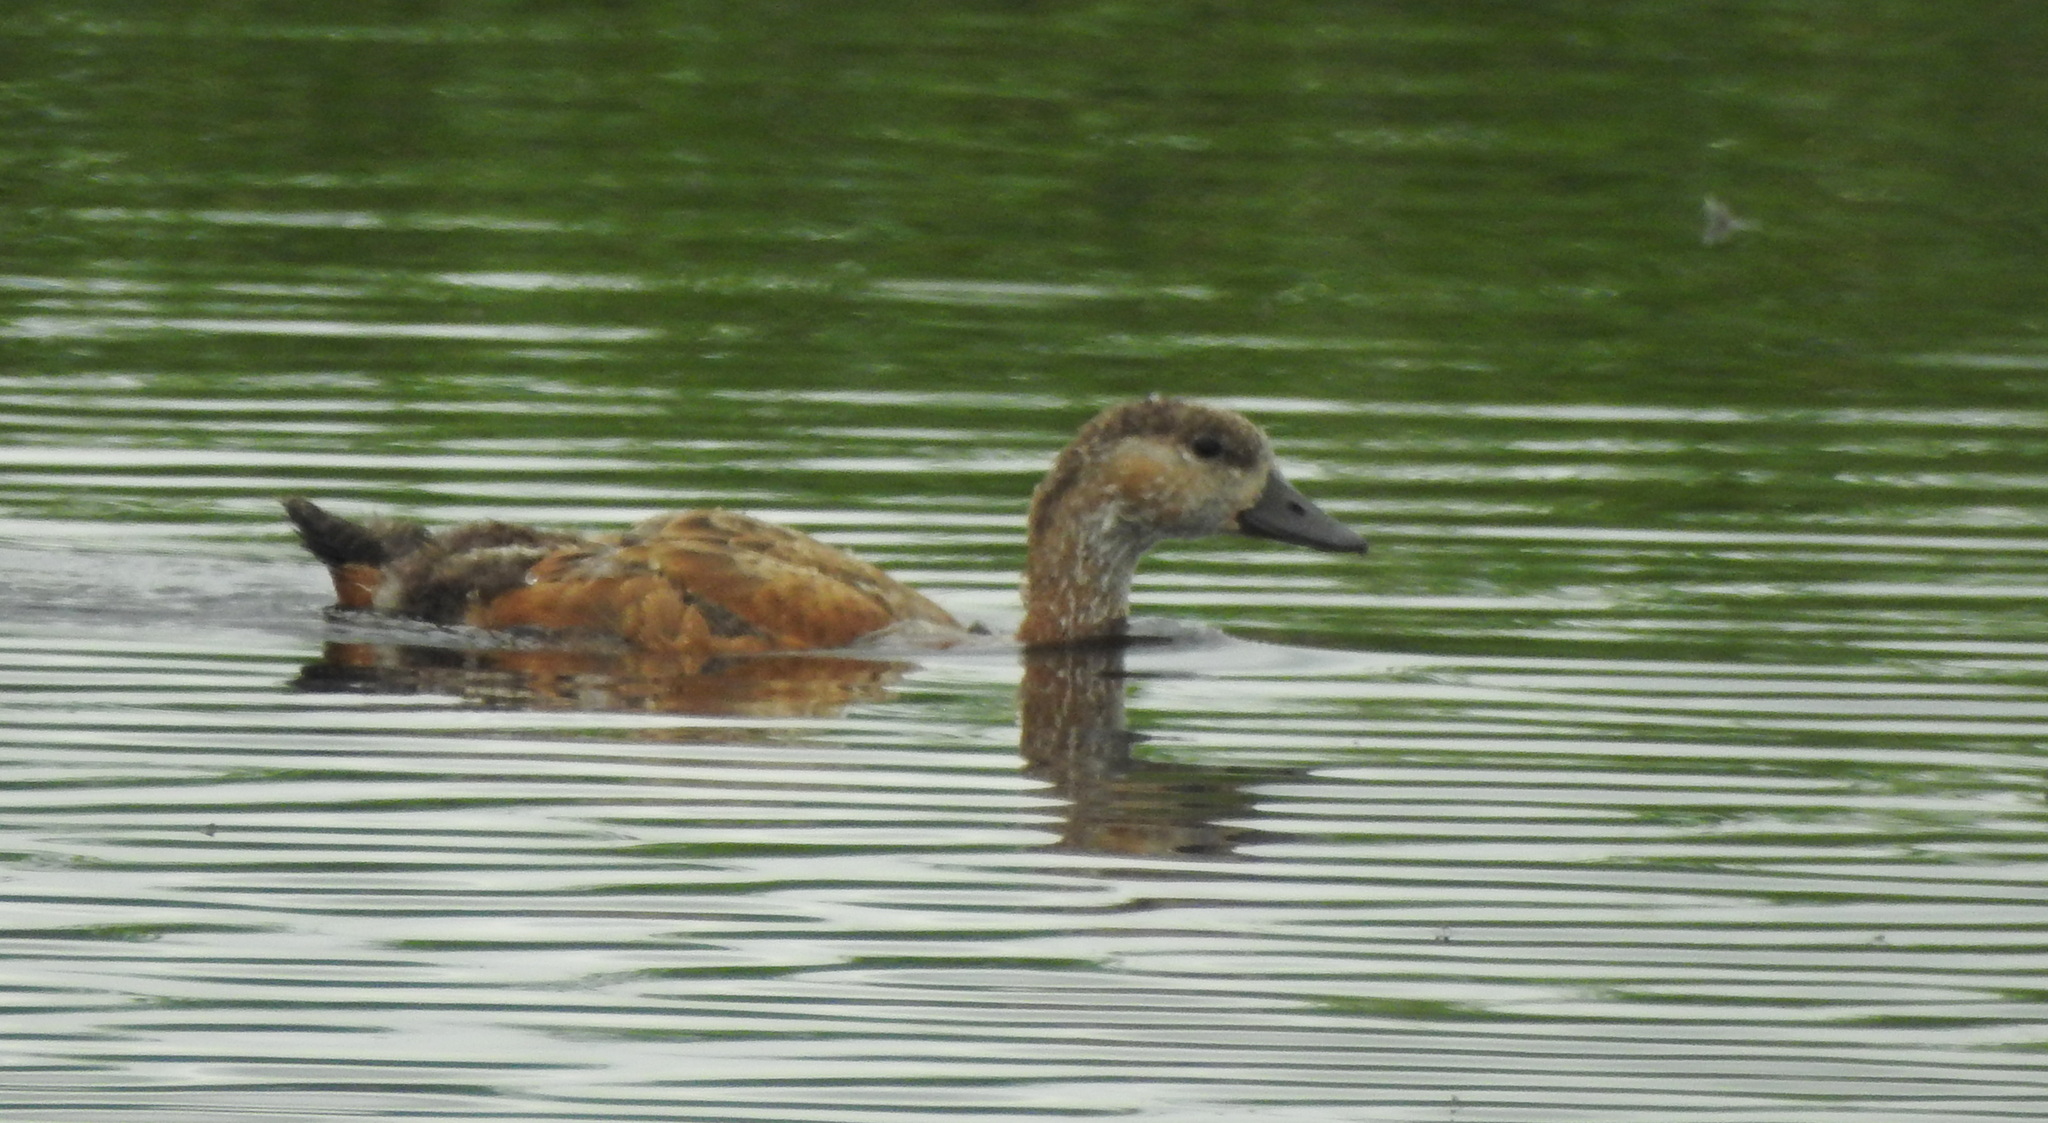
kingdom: Animalia
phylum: Chordata
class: Aves
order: Anseriformes
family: Anatidae
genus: Tadorna
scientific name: Tadorna ferruginea
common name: Ruddy shelduck
